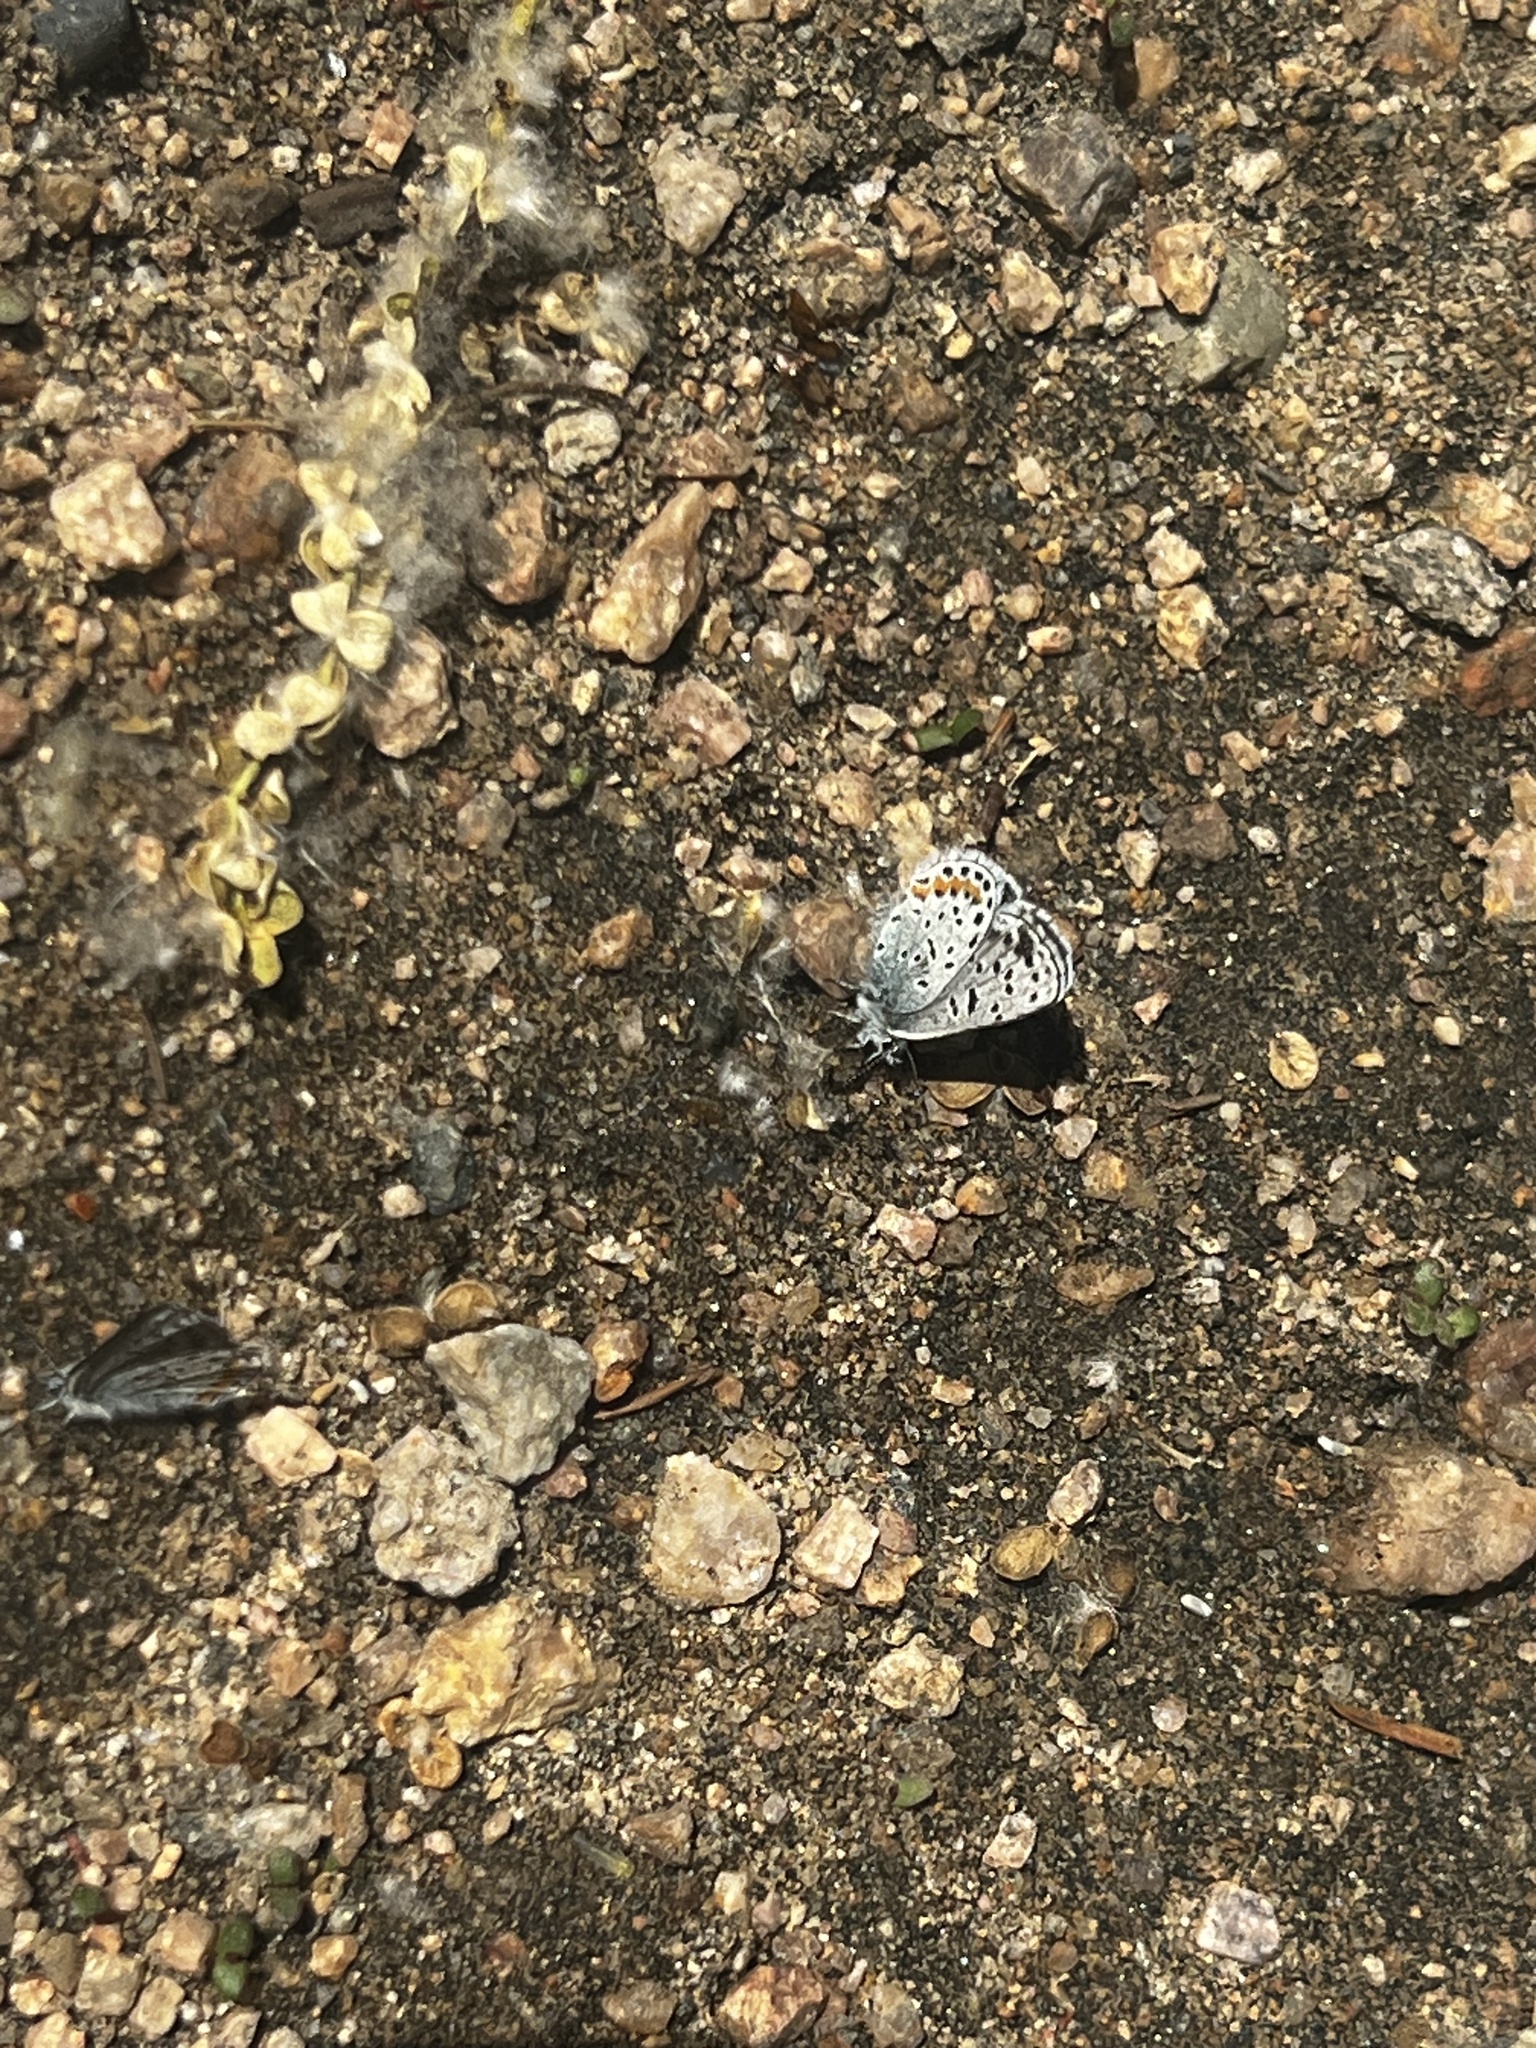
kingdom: Animalia
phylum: Arthropoda
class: Insecta
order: Lepidoptera
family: Lycaenidae
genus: Euphilotes
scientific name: Euphilotes enoptes
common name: Dotted blue
